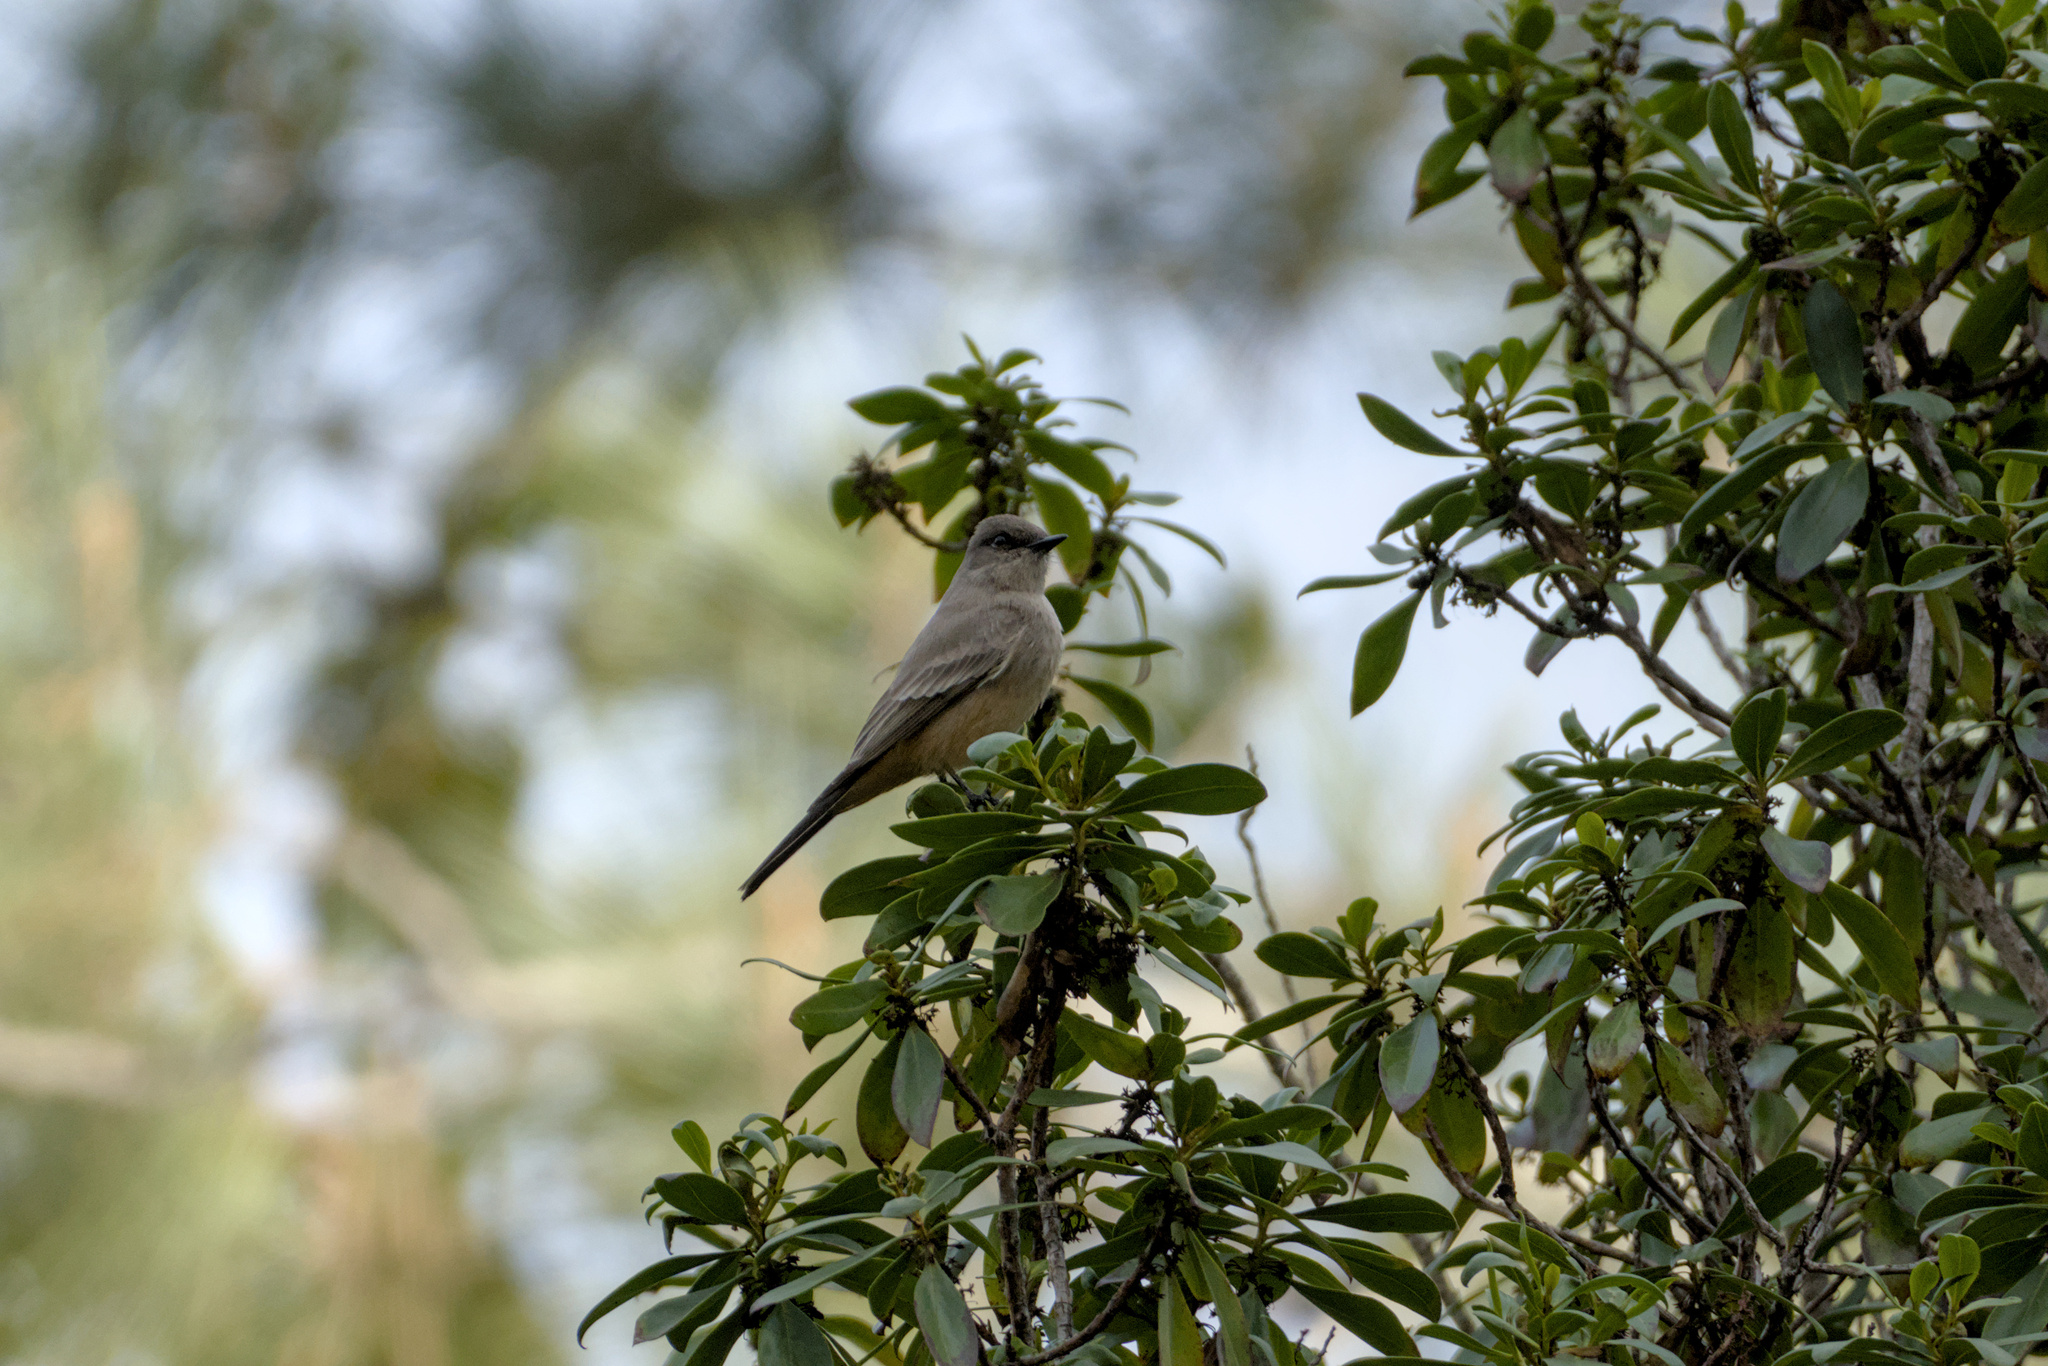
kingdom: Animalia
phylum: Chordata
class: Aves
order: Passeriformes
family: Tyrannidae
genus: Sayornis
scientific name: Sayornis saya
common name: Say's phoebe
